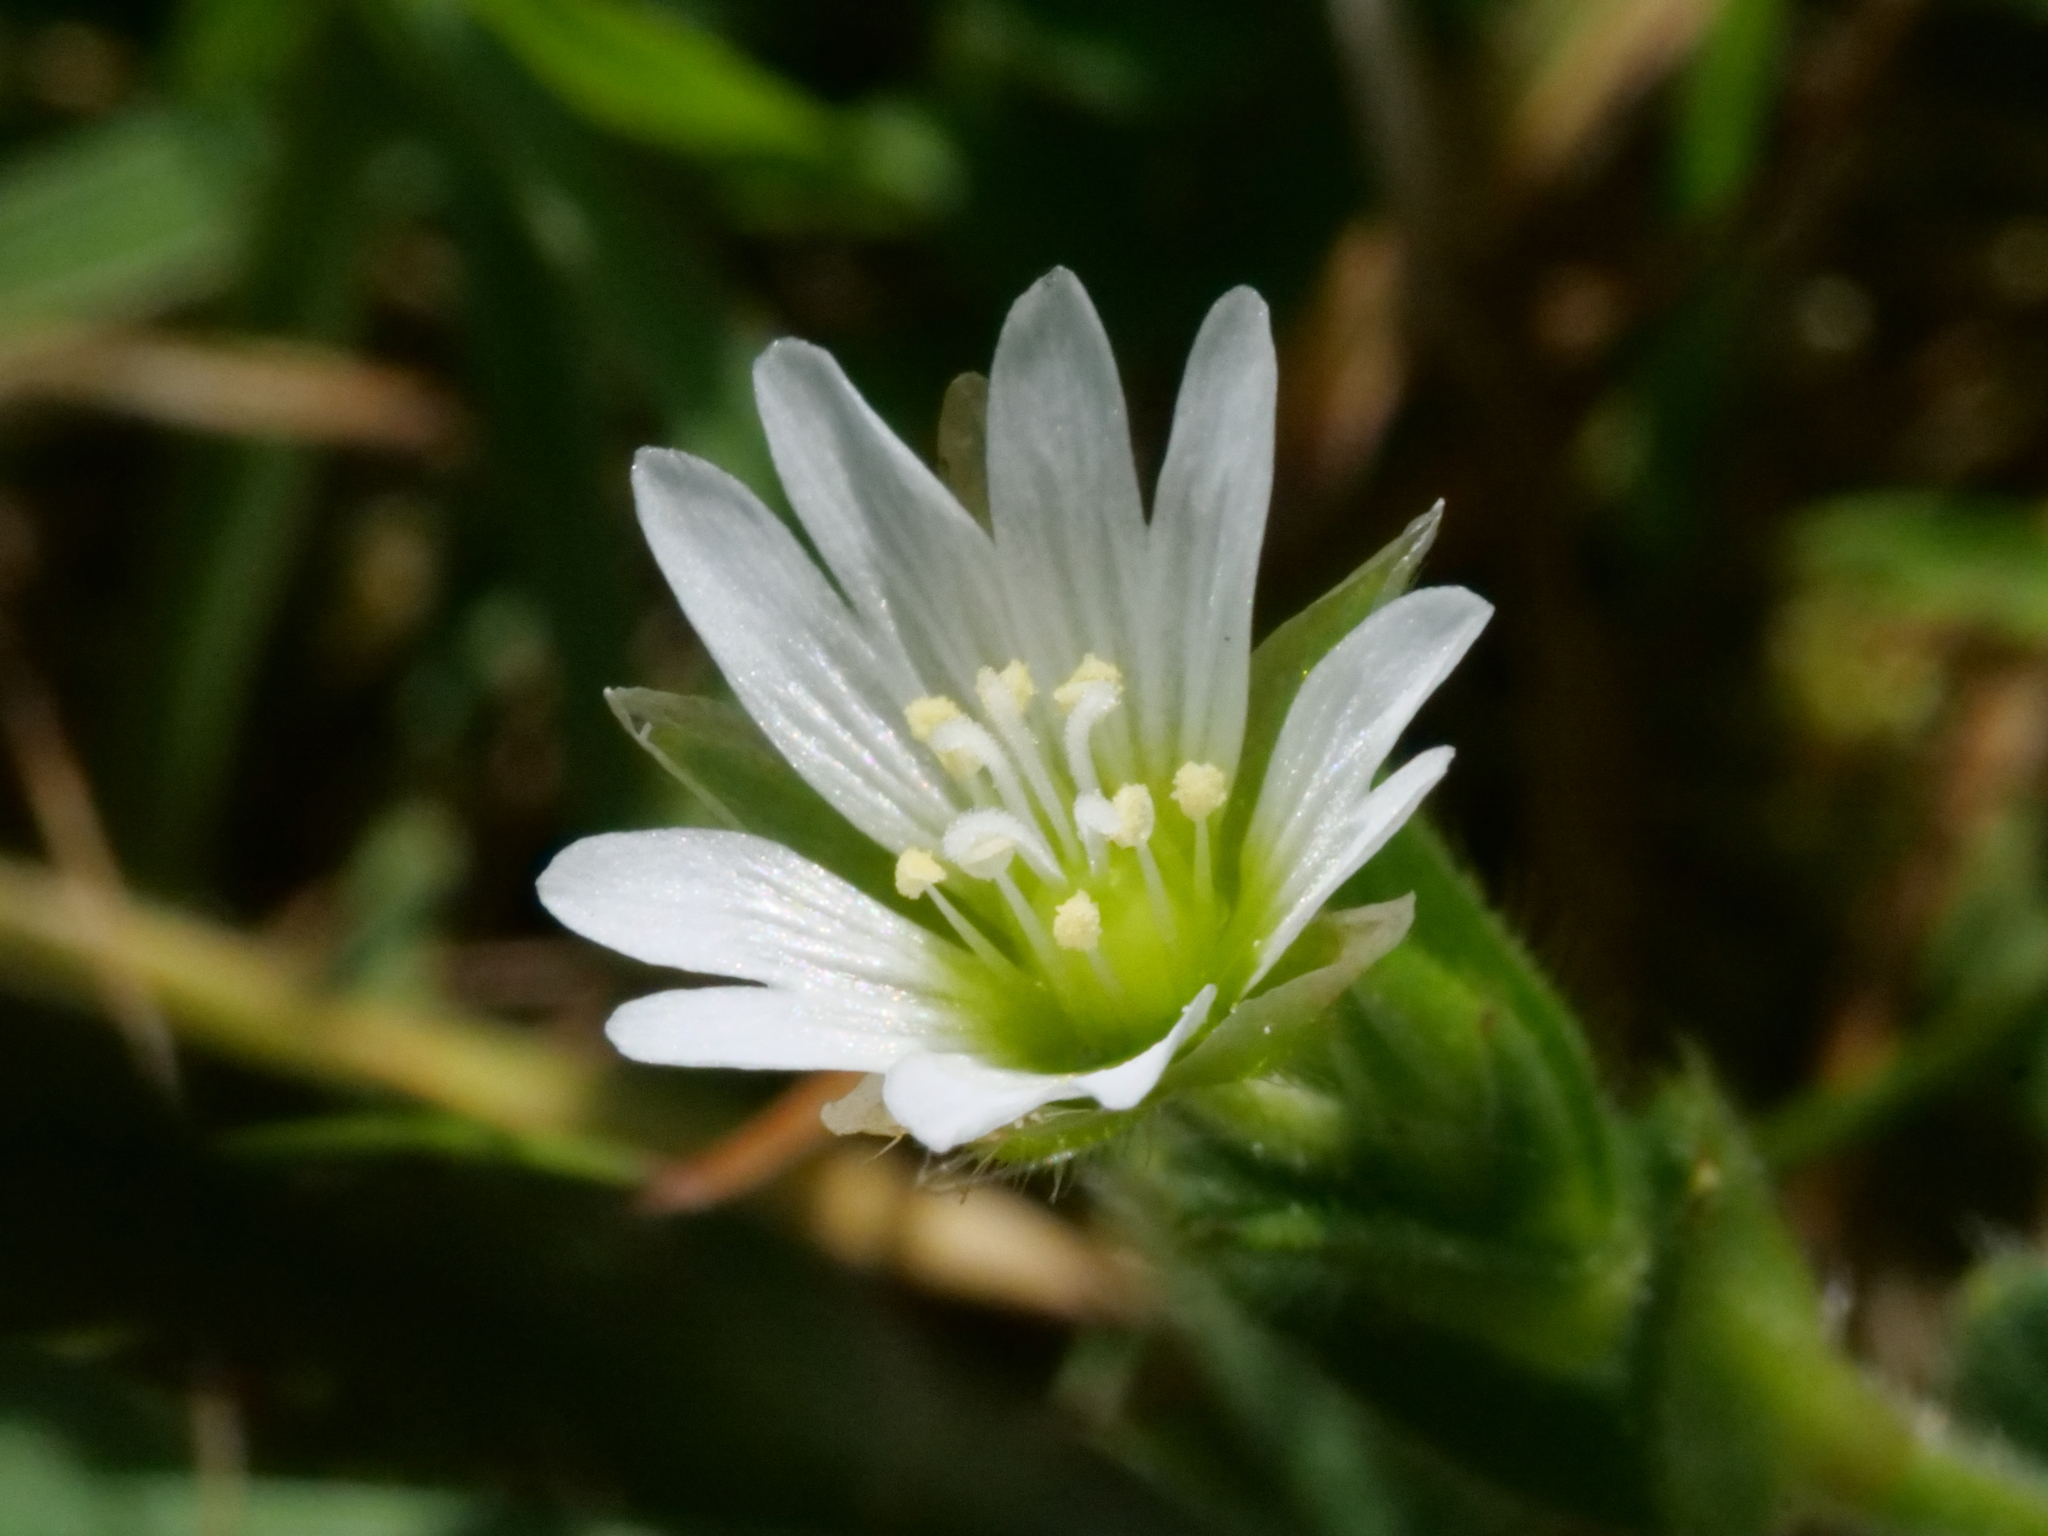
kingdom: Plantae
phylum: Tracheophyta
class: Magnoliopsida
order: Caryophyllales
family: Caryophyllaceae
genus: Cerastium
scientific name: Cerastium fontanum
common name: Common mouse-ear
